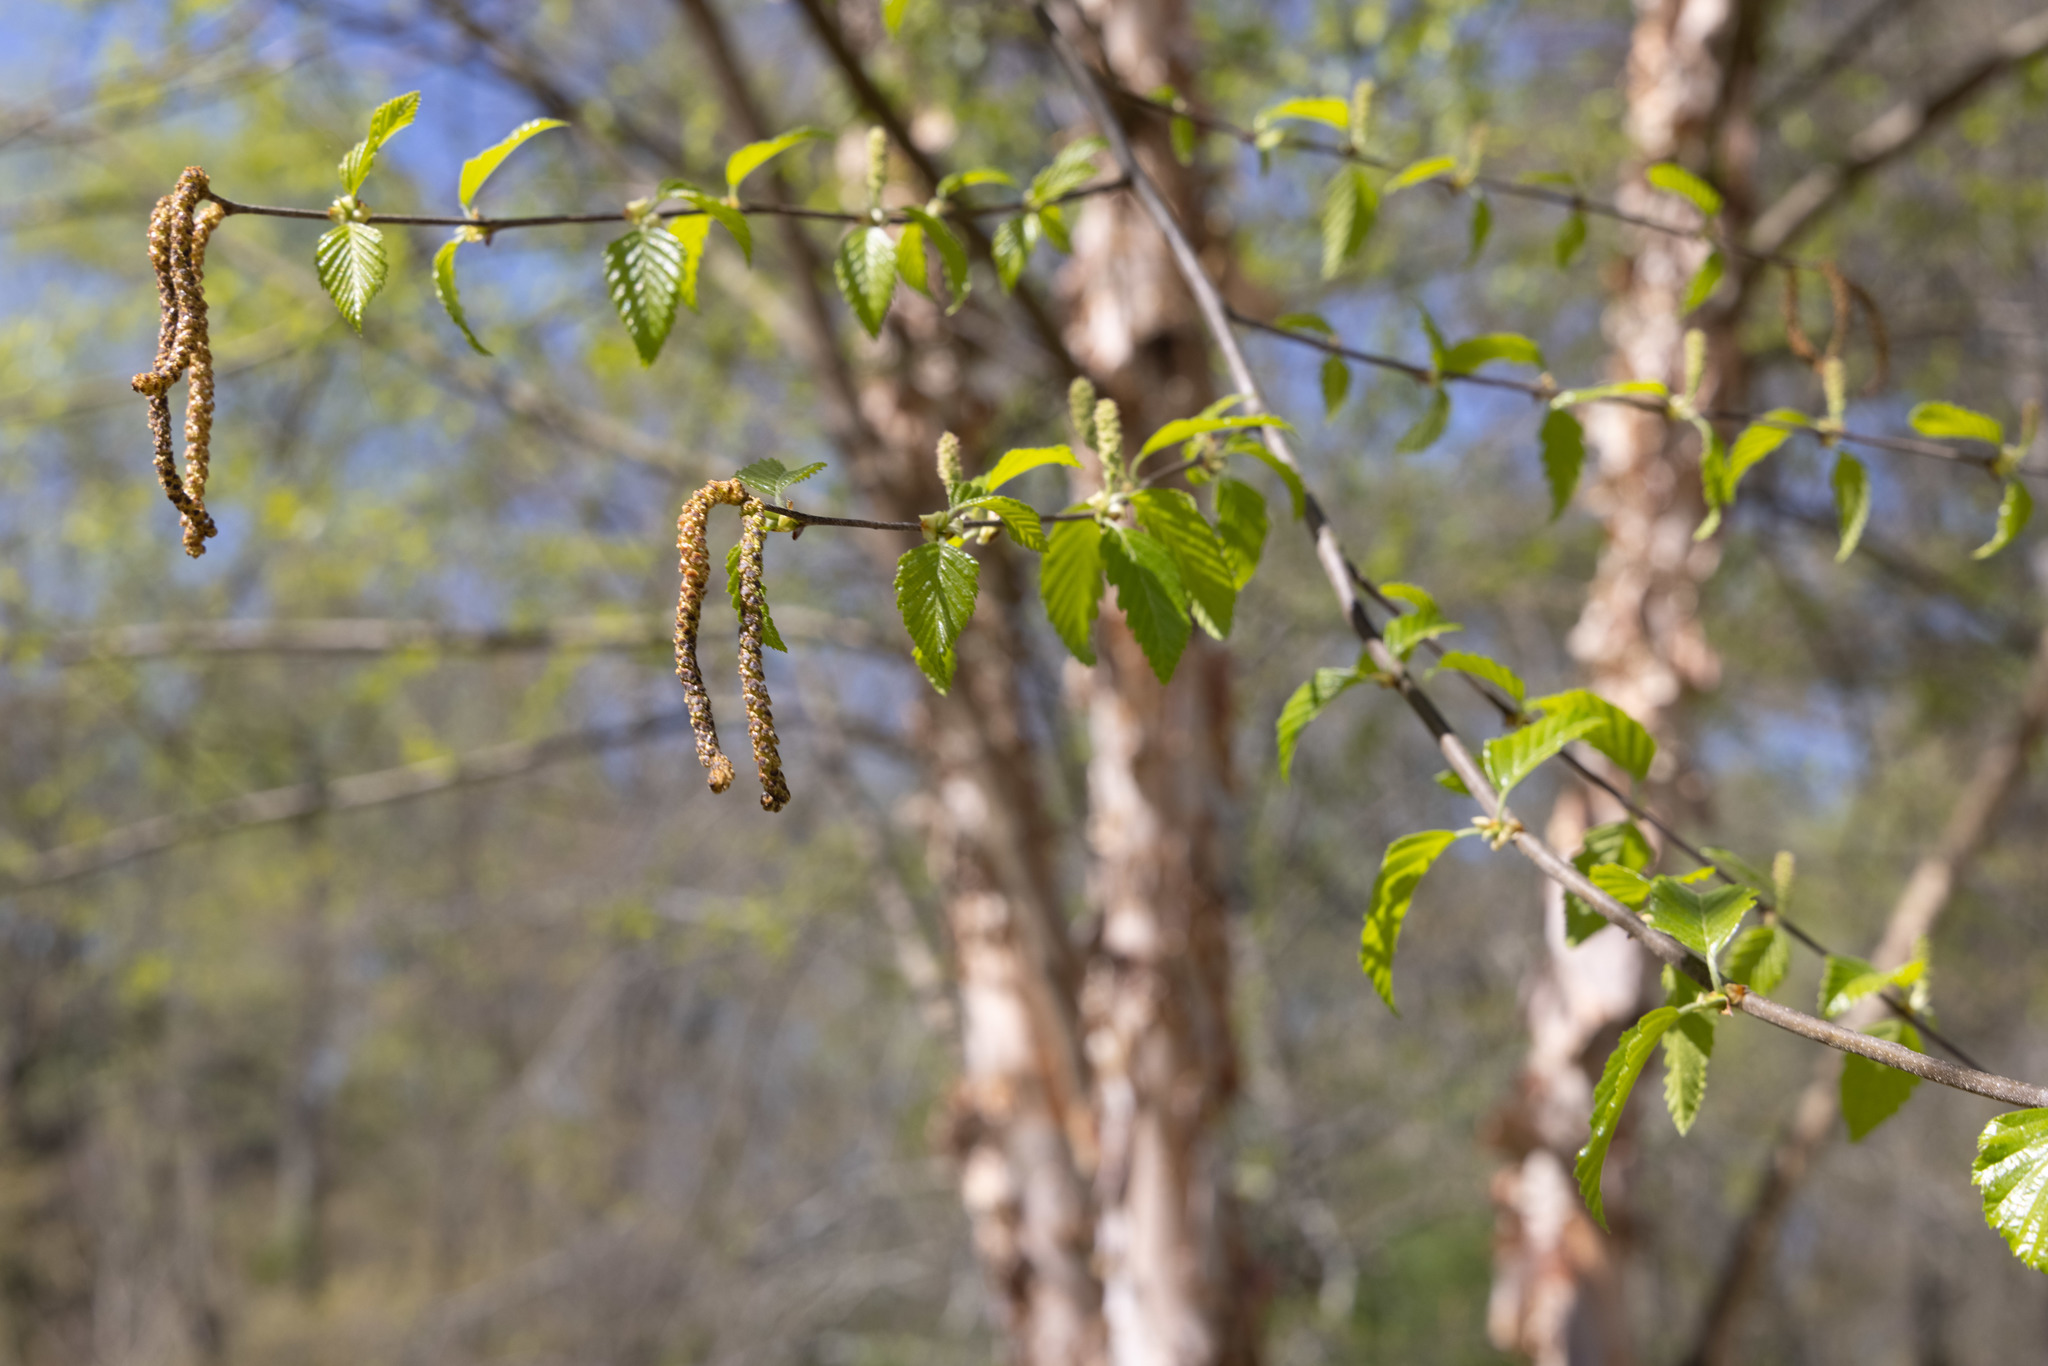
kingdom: Plantae
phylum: Tracheophyta
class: Magnoliopsida
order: Fagales
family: Betulaceae
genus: Betula
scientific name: Betula nigra
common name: Black birch
